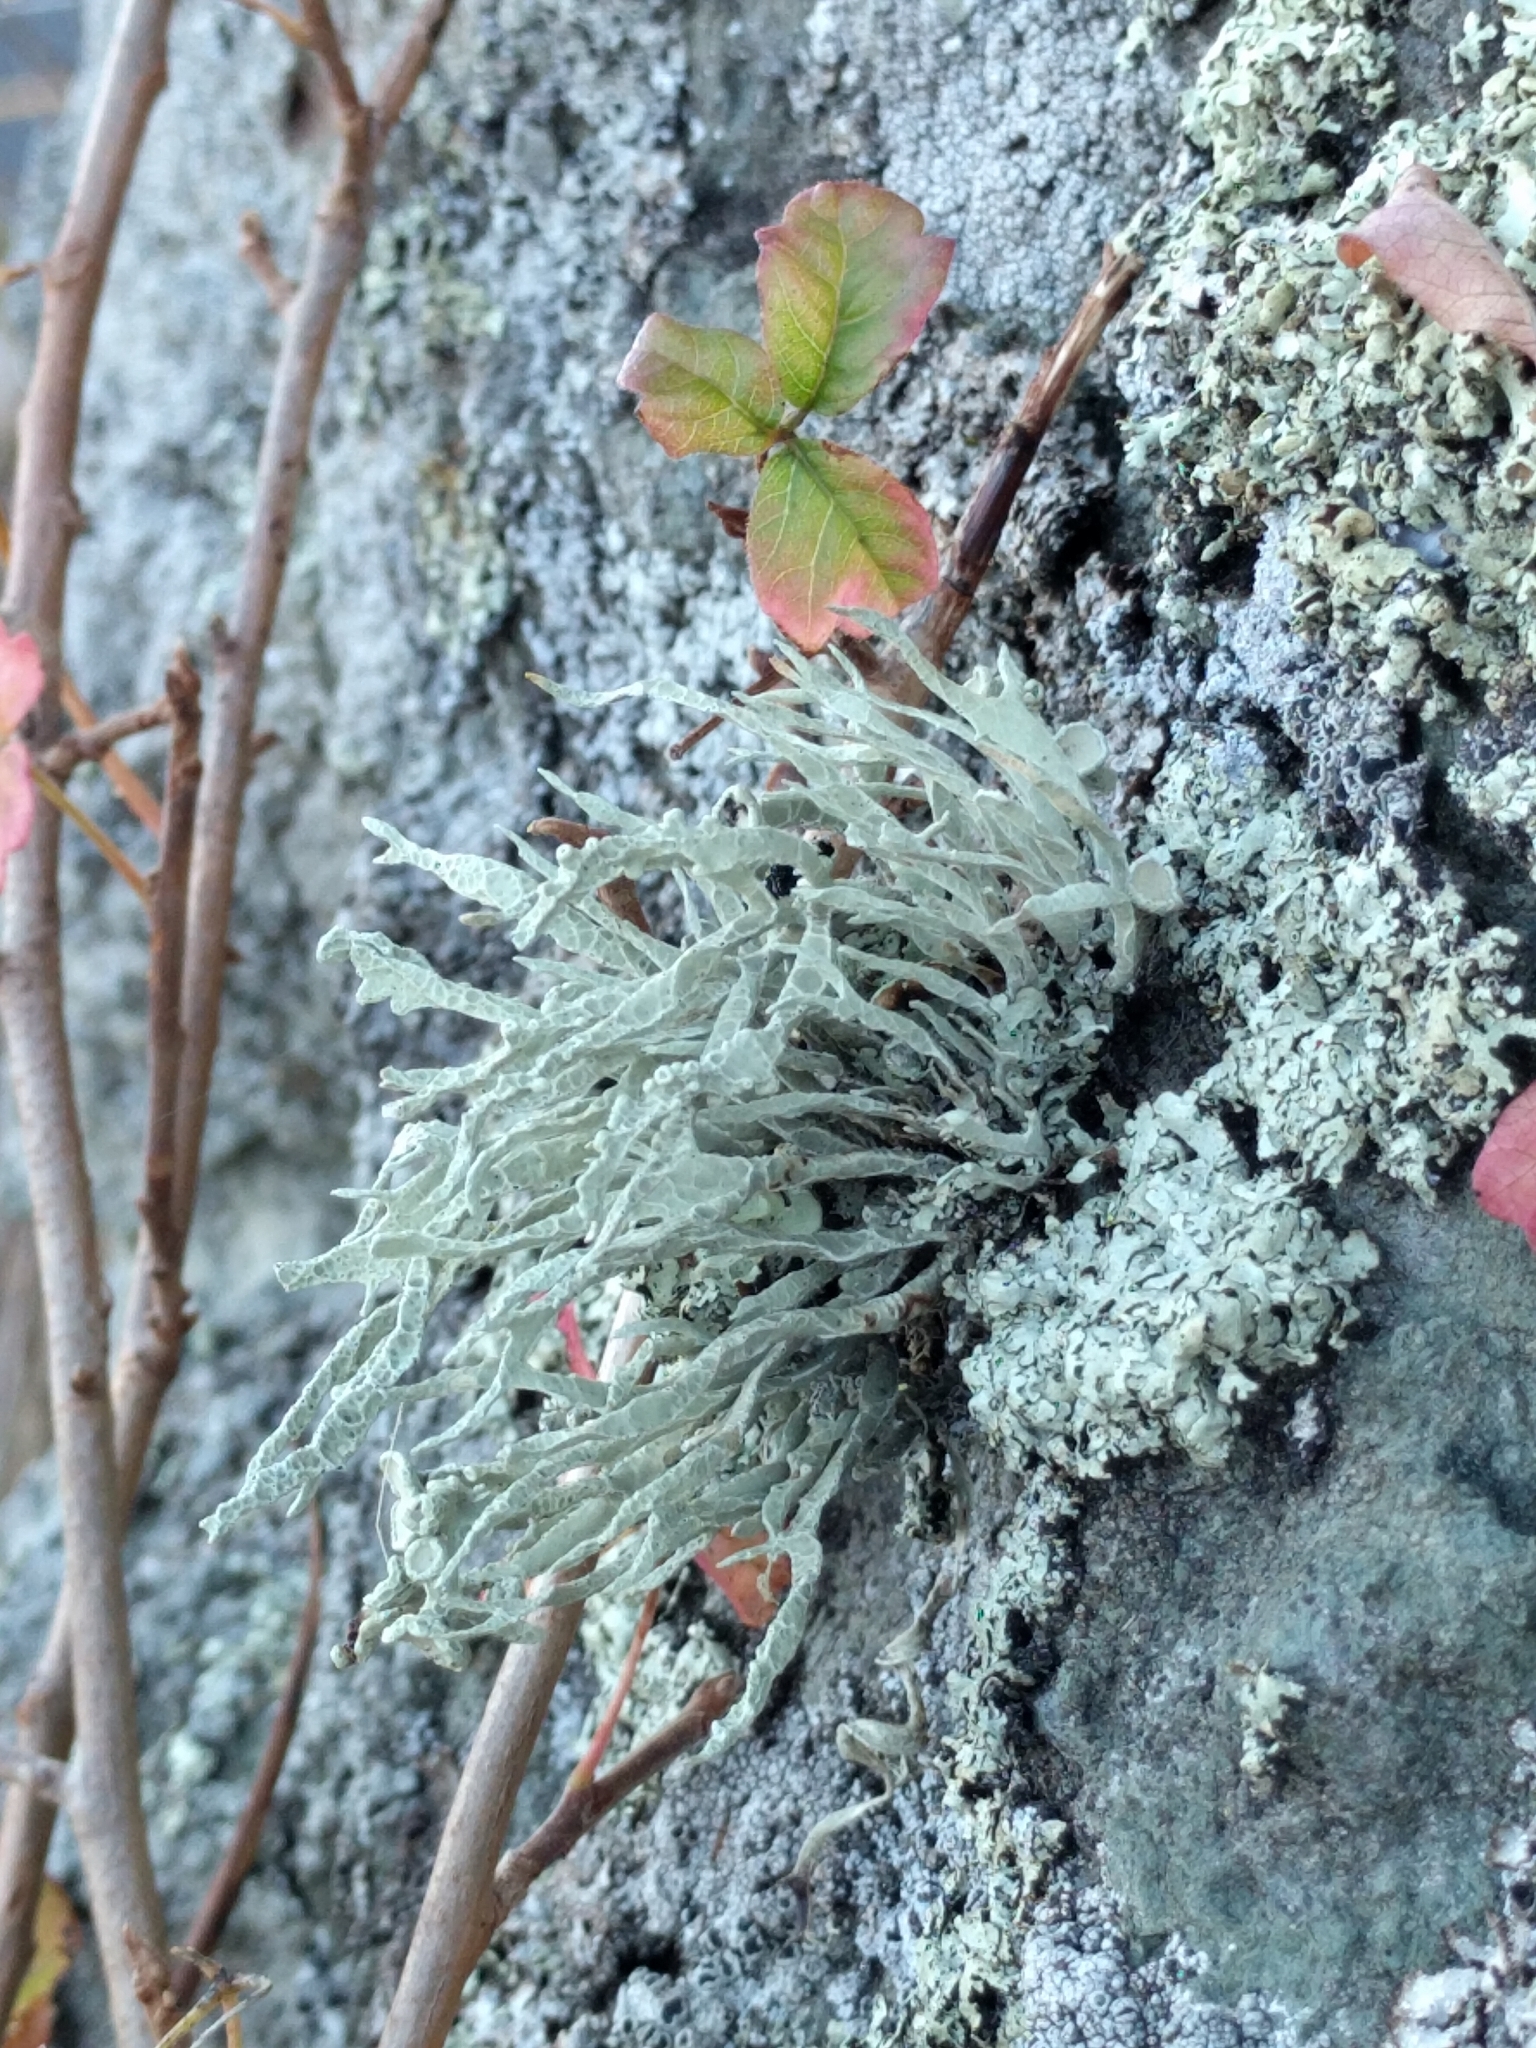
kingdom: Fungi
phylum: Ascomycota
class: Lecanoromycetes
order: Lecanorales
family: Ramalinaceae
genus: Niebla
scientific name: Niebla homalea
